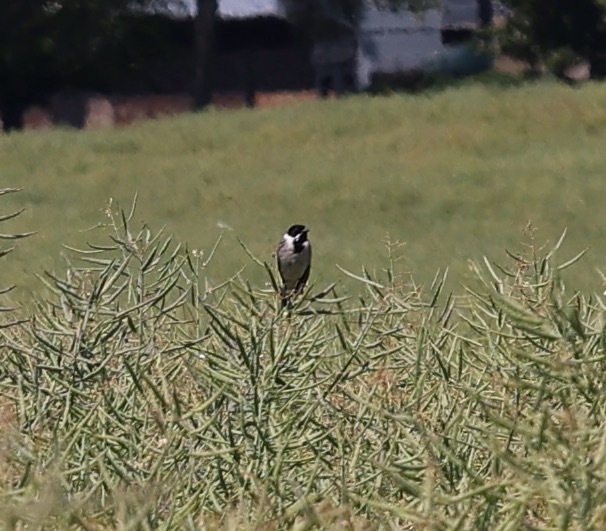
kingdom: Animalia
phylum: Chordata
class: Aves
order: Passeriformes
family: Emberizidae
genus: Emberiza
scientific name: Emberiza schoeniclus
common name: Reed bunting
